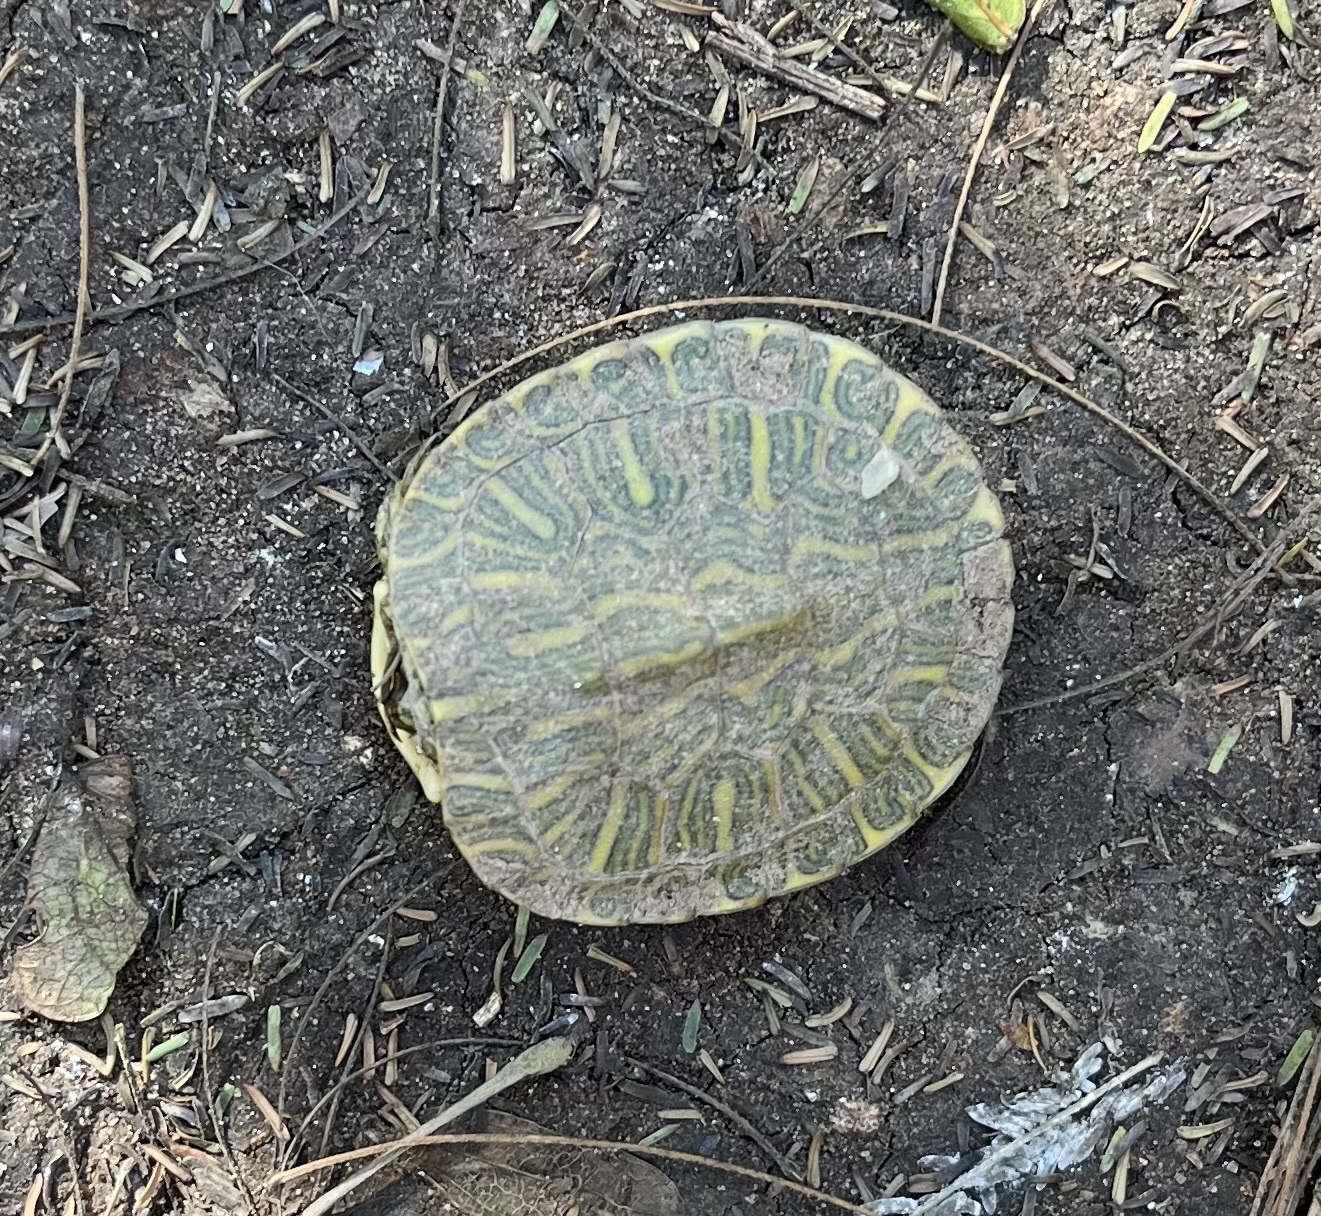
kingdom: Animalia
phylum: Chordata
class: Testudines
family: Emydidae
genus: Trachemys
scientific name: Trachemys scripta
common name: Slider
